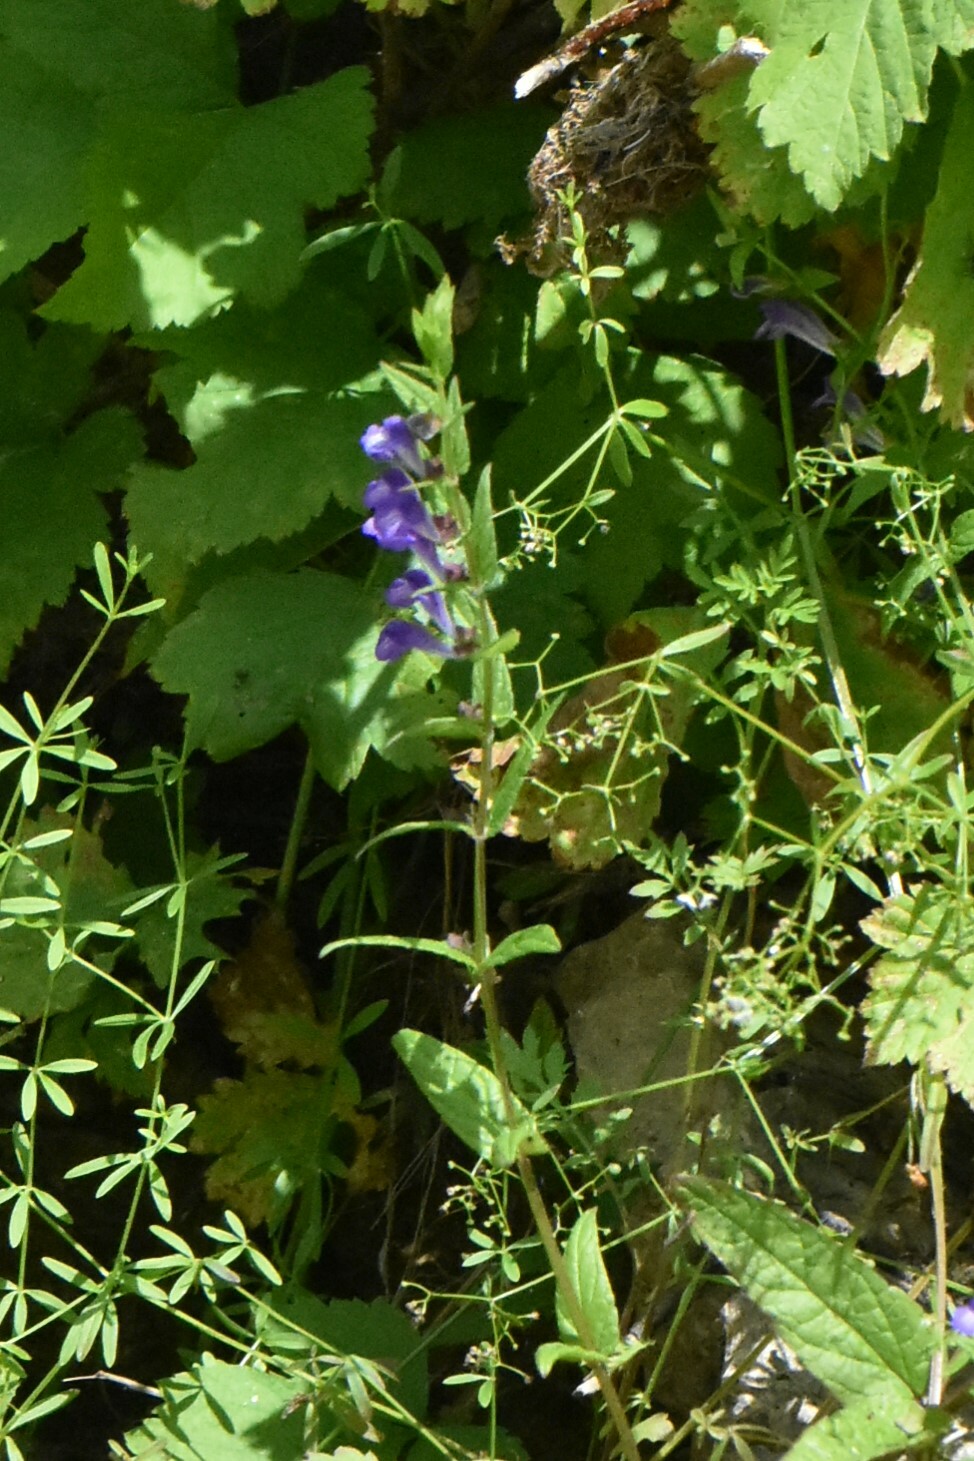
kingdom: Plantae
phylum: Tracheophyta
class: Magnoliopsida
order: Lamiales
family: Lamiaceae
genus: Scutellaria
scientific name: Scutellaria galericulata
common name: Skullcap
